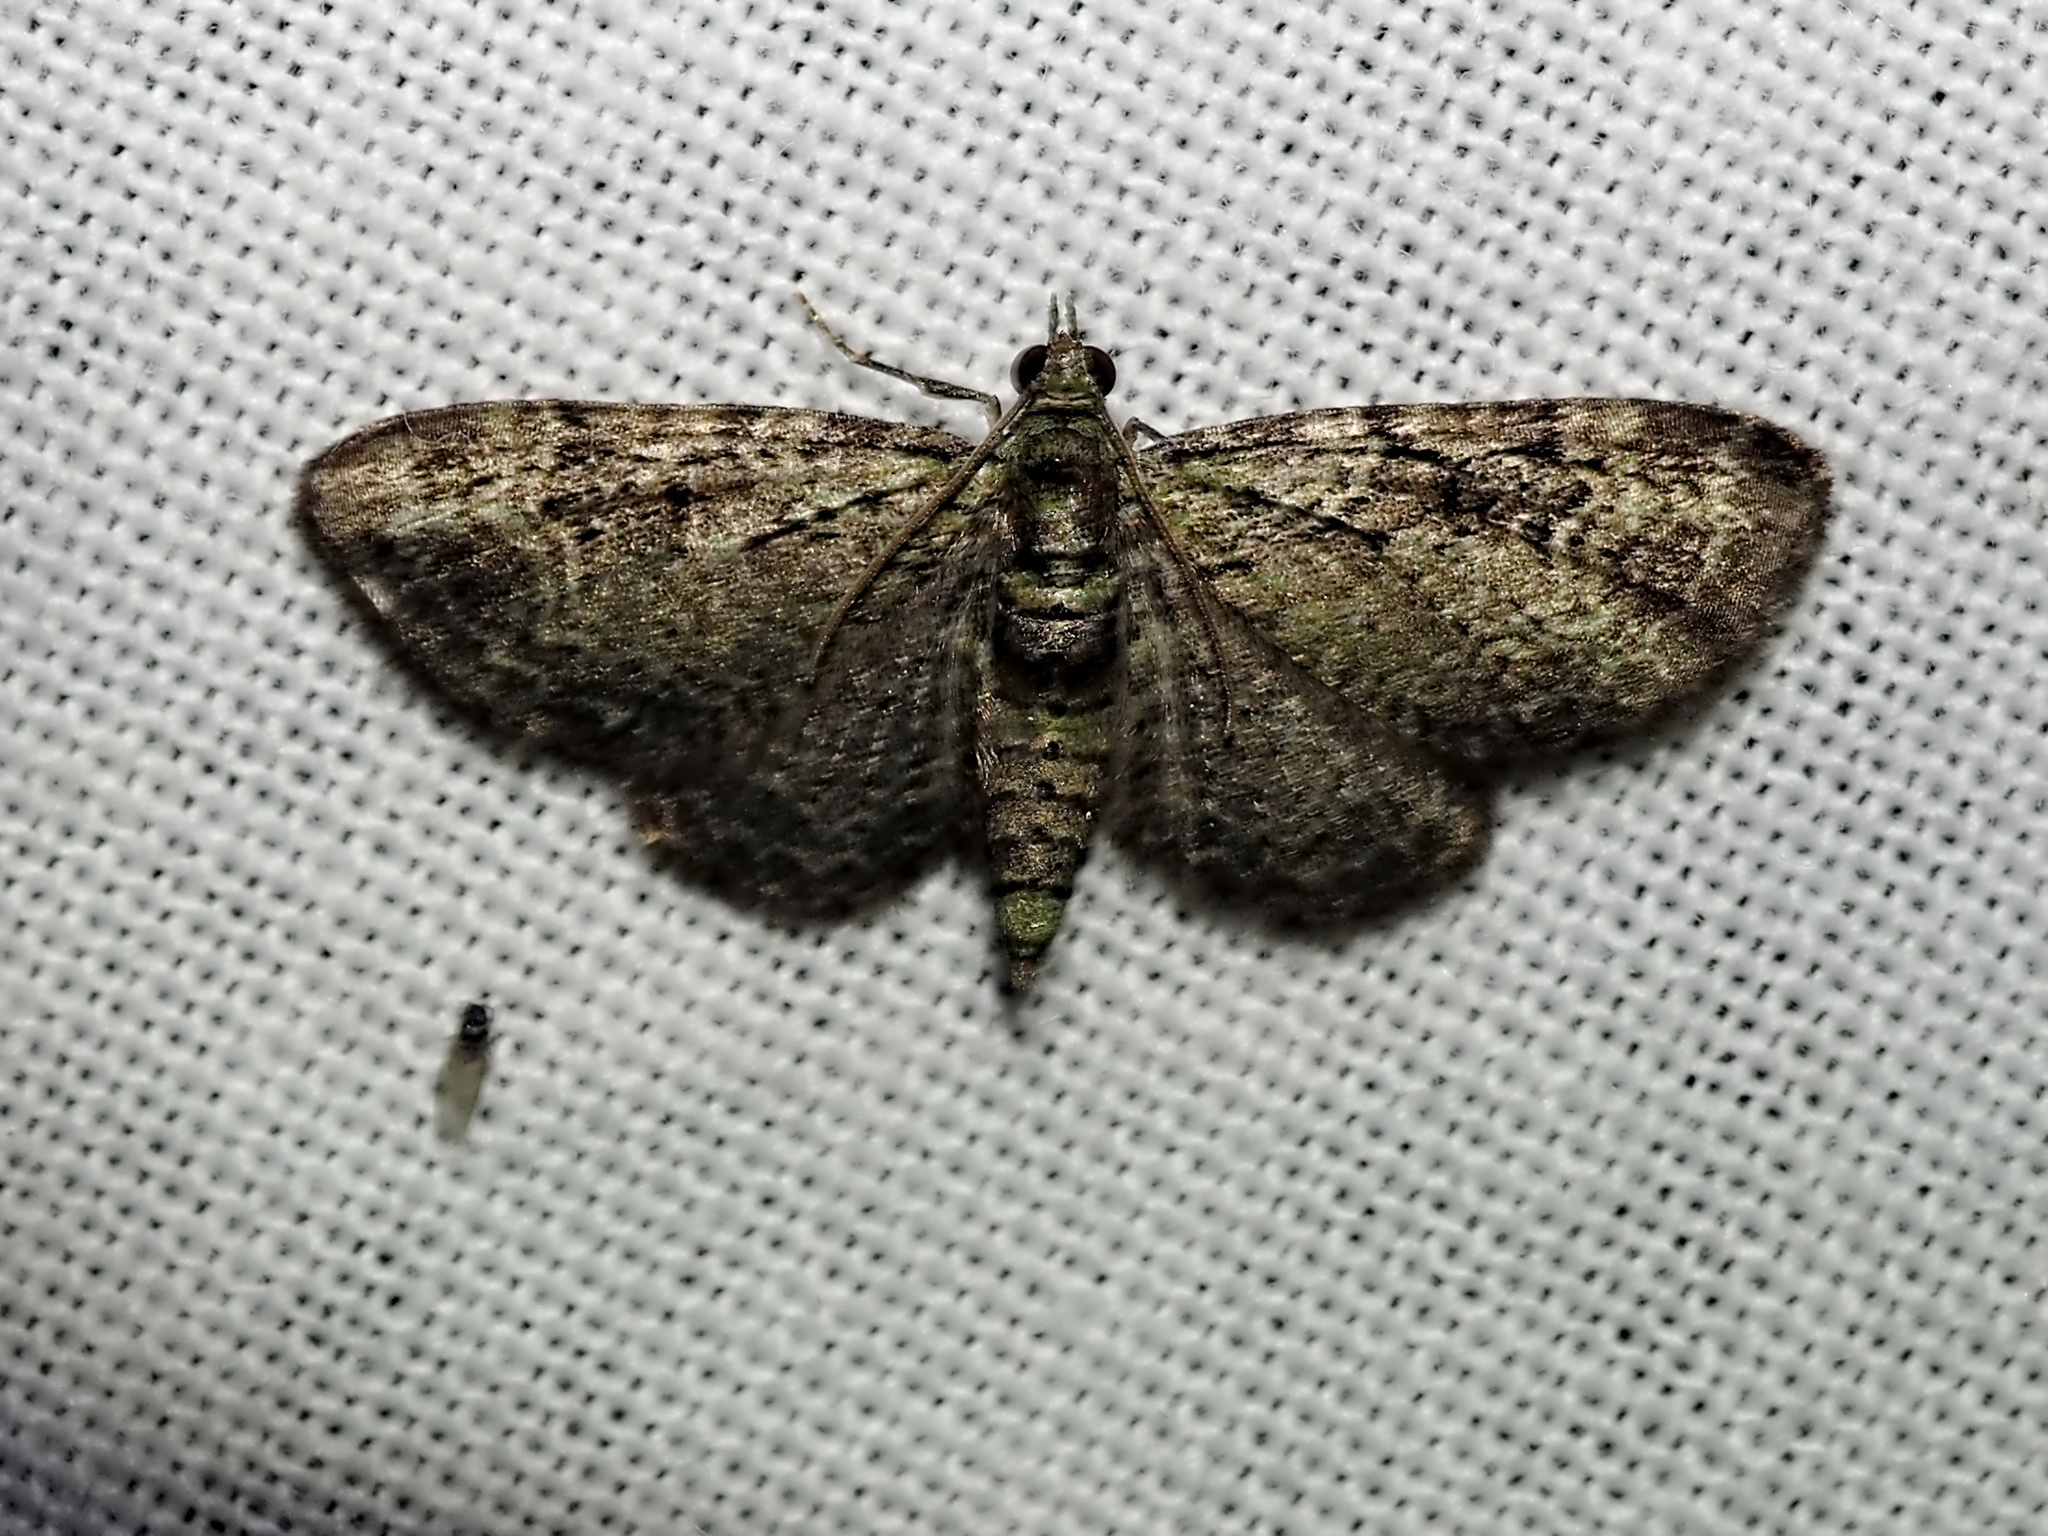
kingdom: Animalia
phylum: Arthropoda
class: Insecta
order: Lepidoptera
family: Geometridae
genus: Pasiphila
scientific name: Pasiphila rectangulata
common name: Green pug
